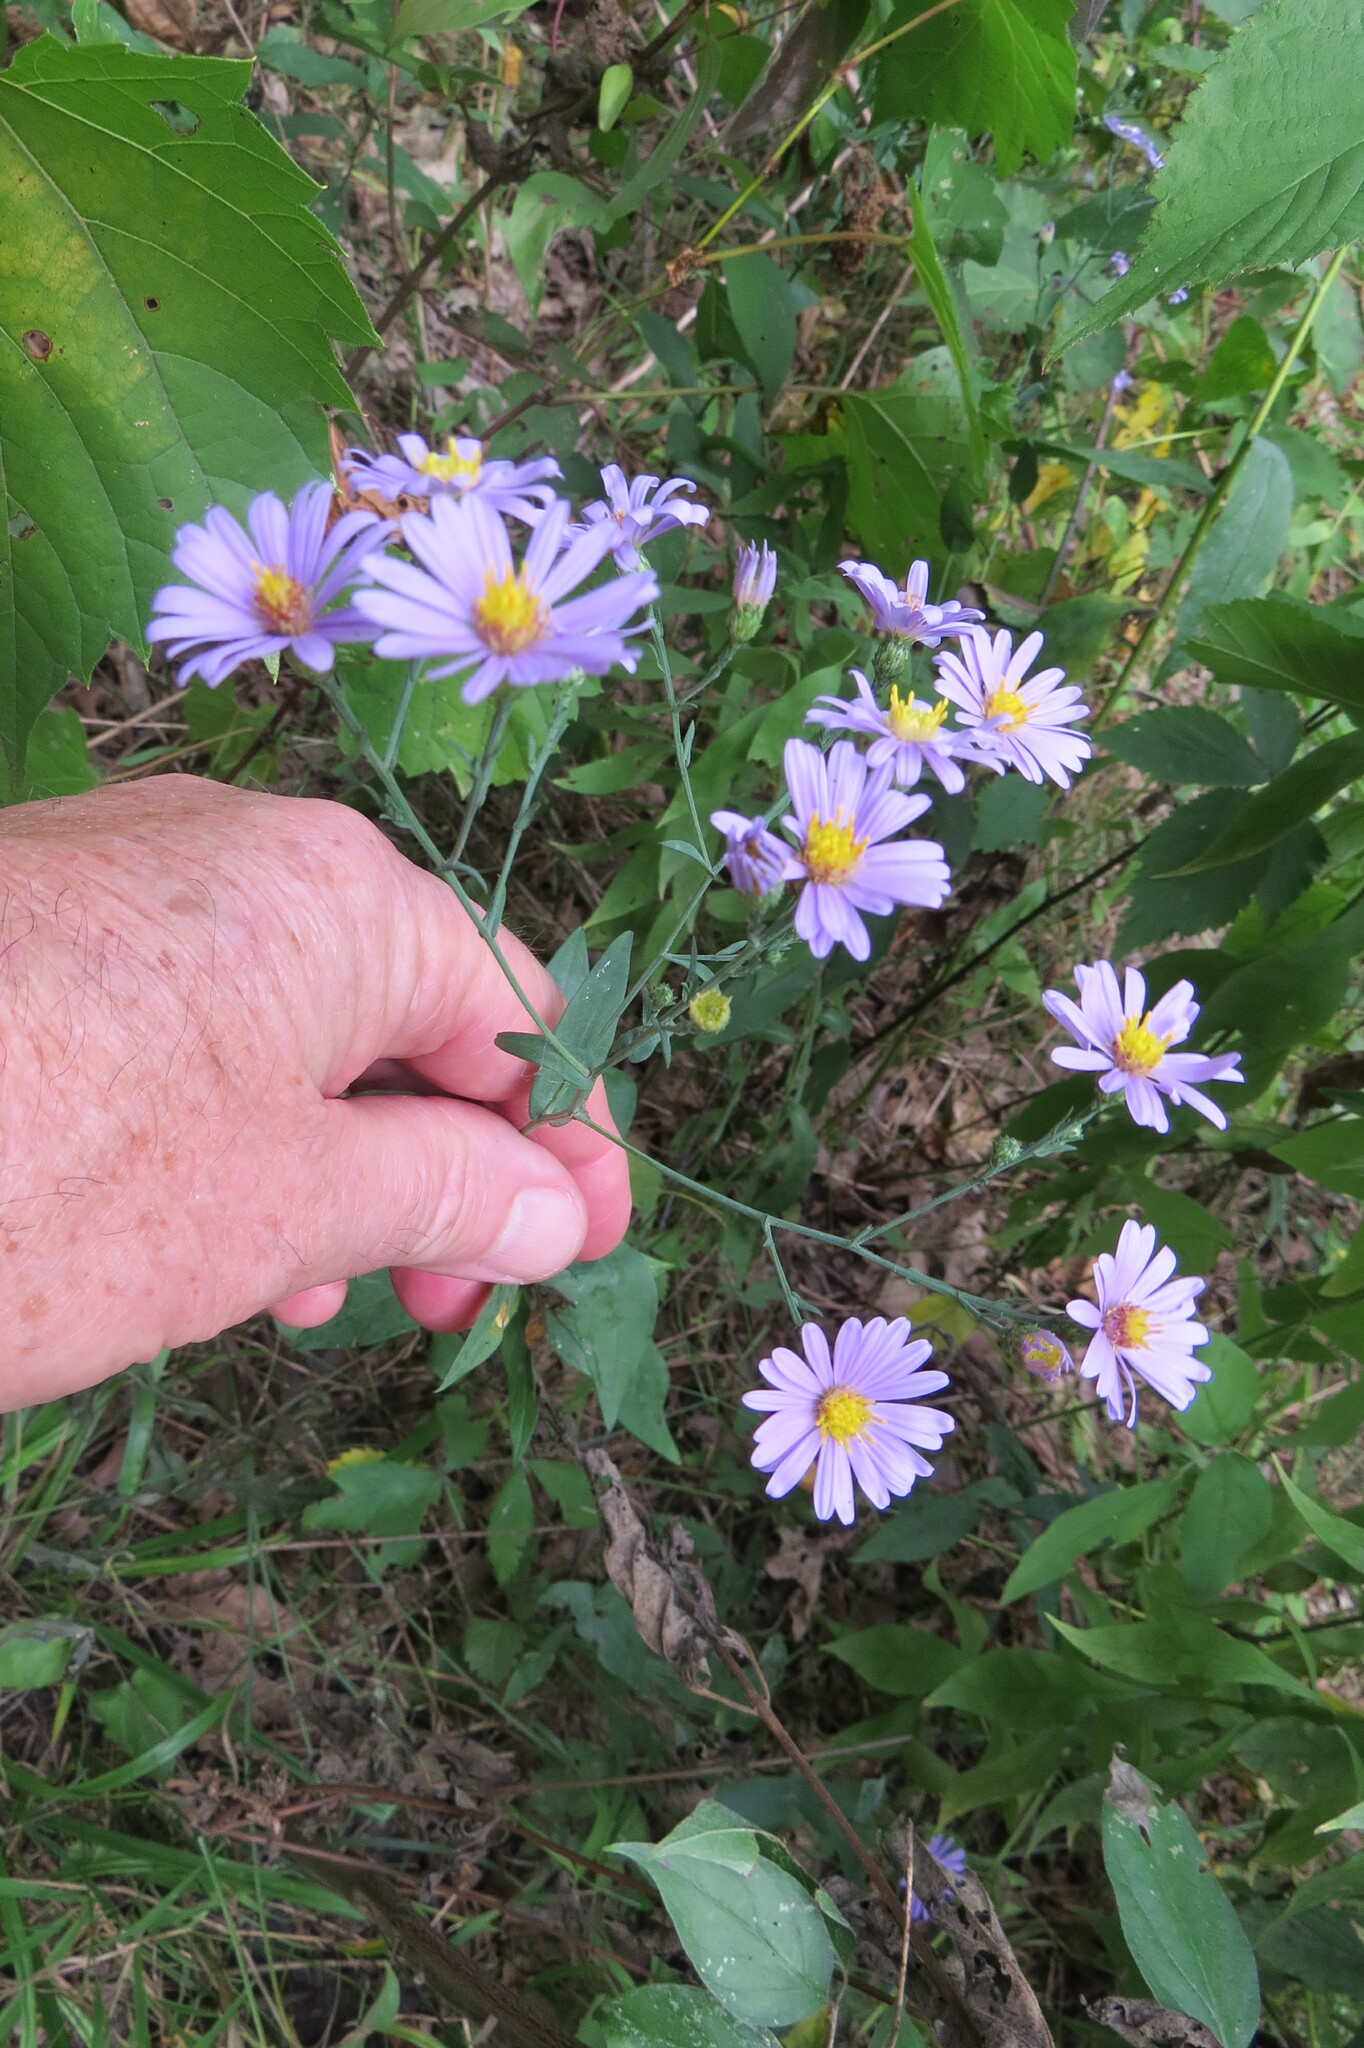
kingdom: Plantae
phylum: Tracheophyta
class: Magnoliopsida
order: Asterales
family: Asteraceae
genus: Symphyotrichum
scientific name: Symphyotrichum laeve
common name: Glaucous aster
